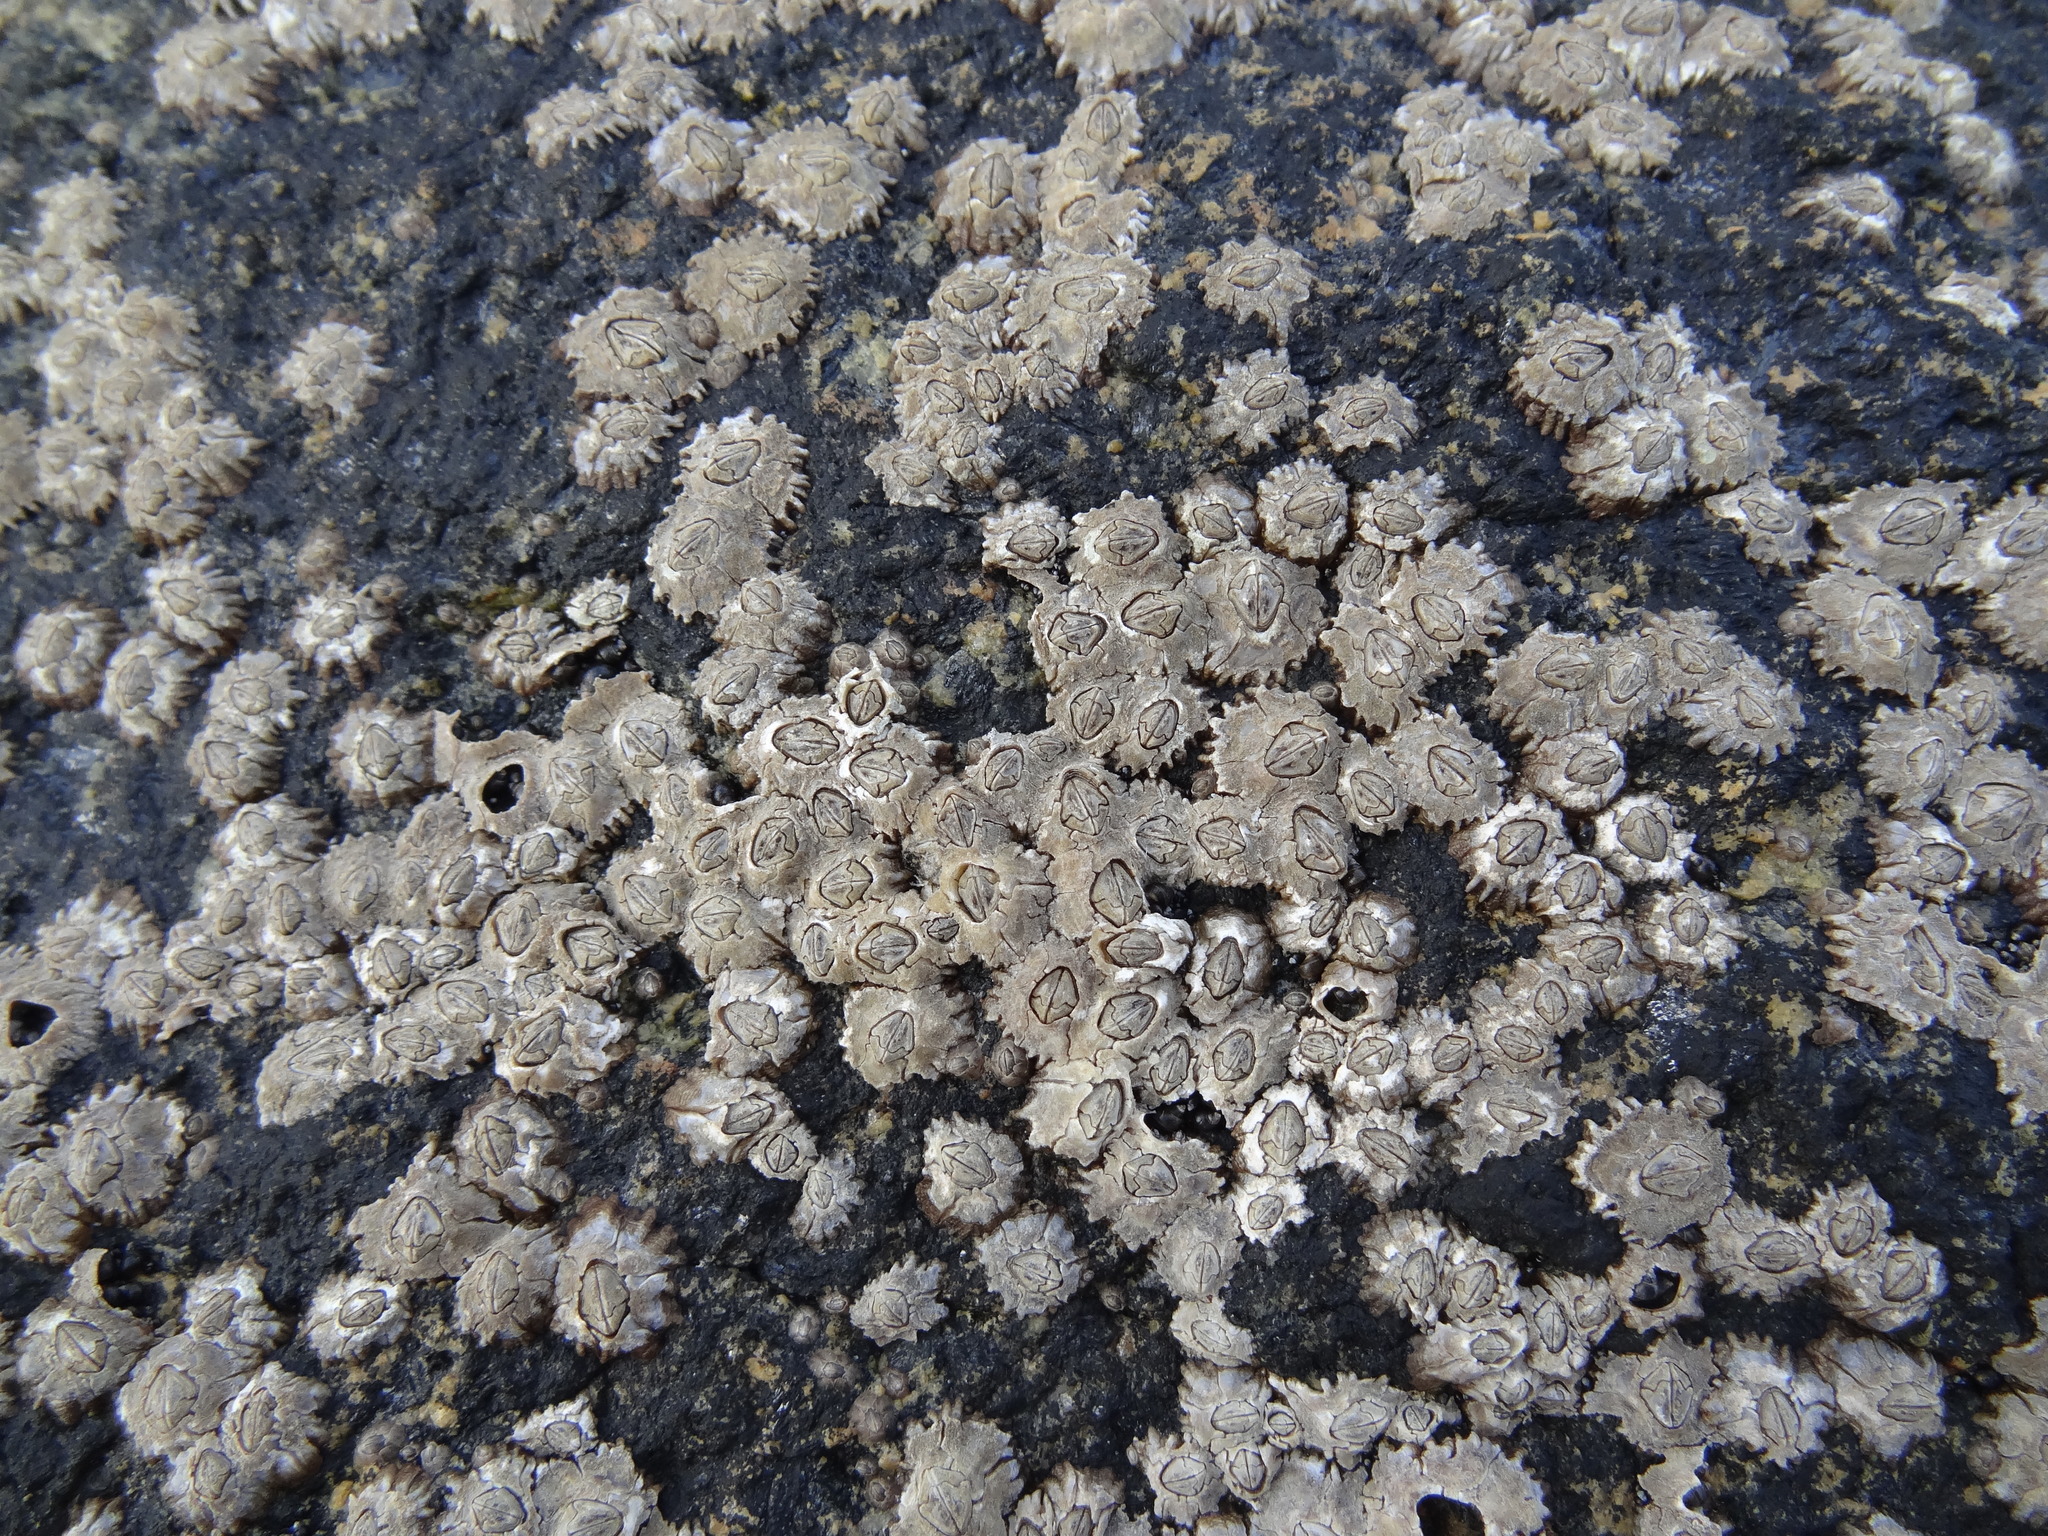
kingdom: Animalia
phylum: Arthropoda
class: Maxillopoda
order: Sessilia
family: Chthamalidae
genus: Jehlius
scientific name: Jehlius cirratus
